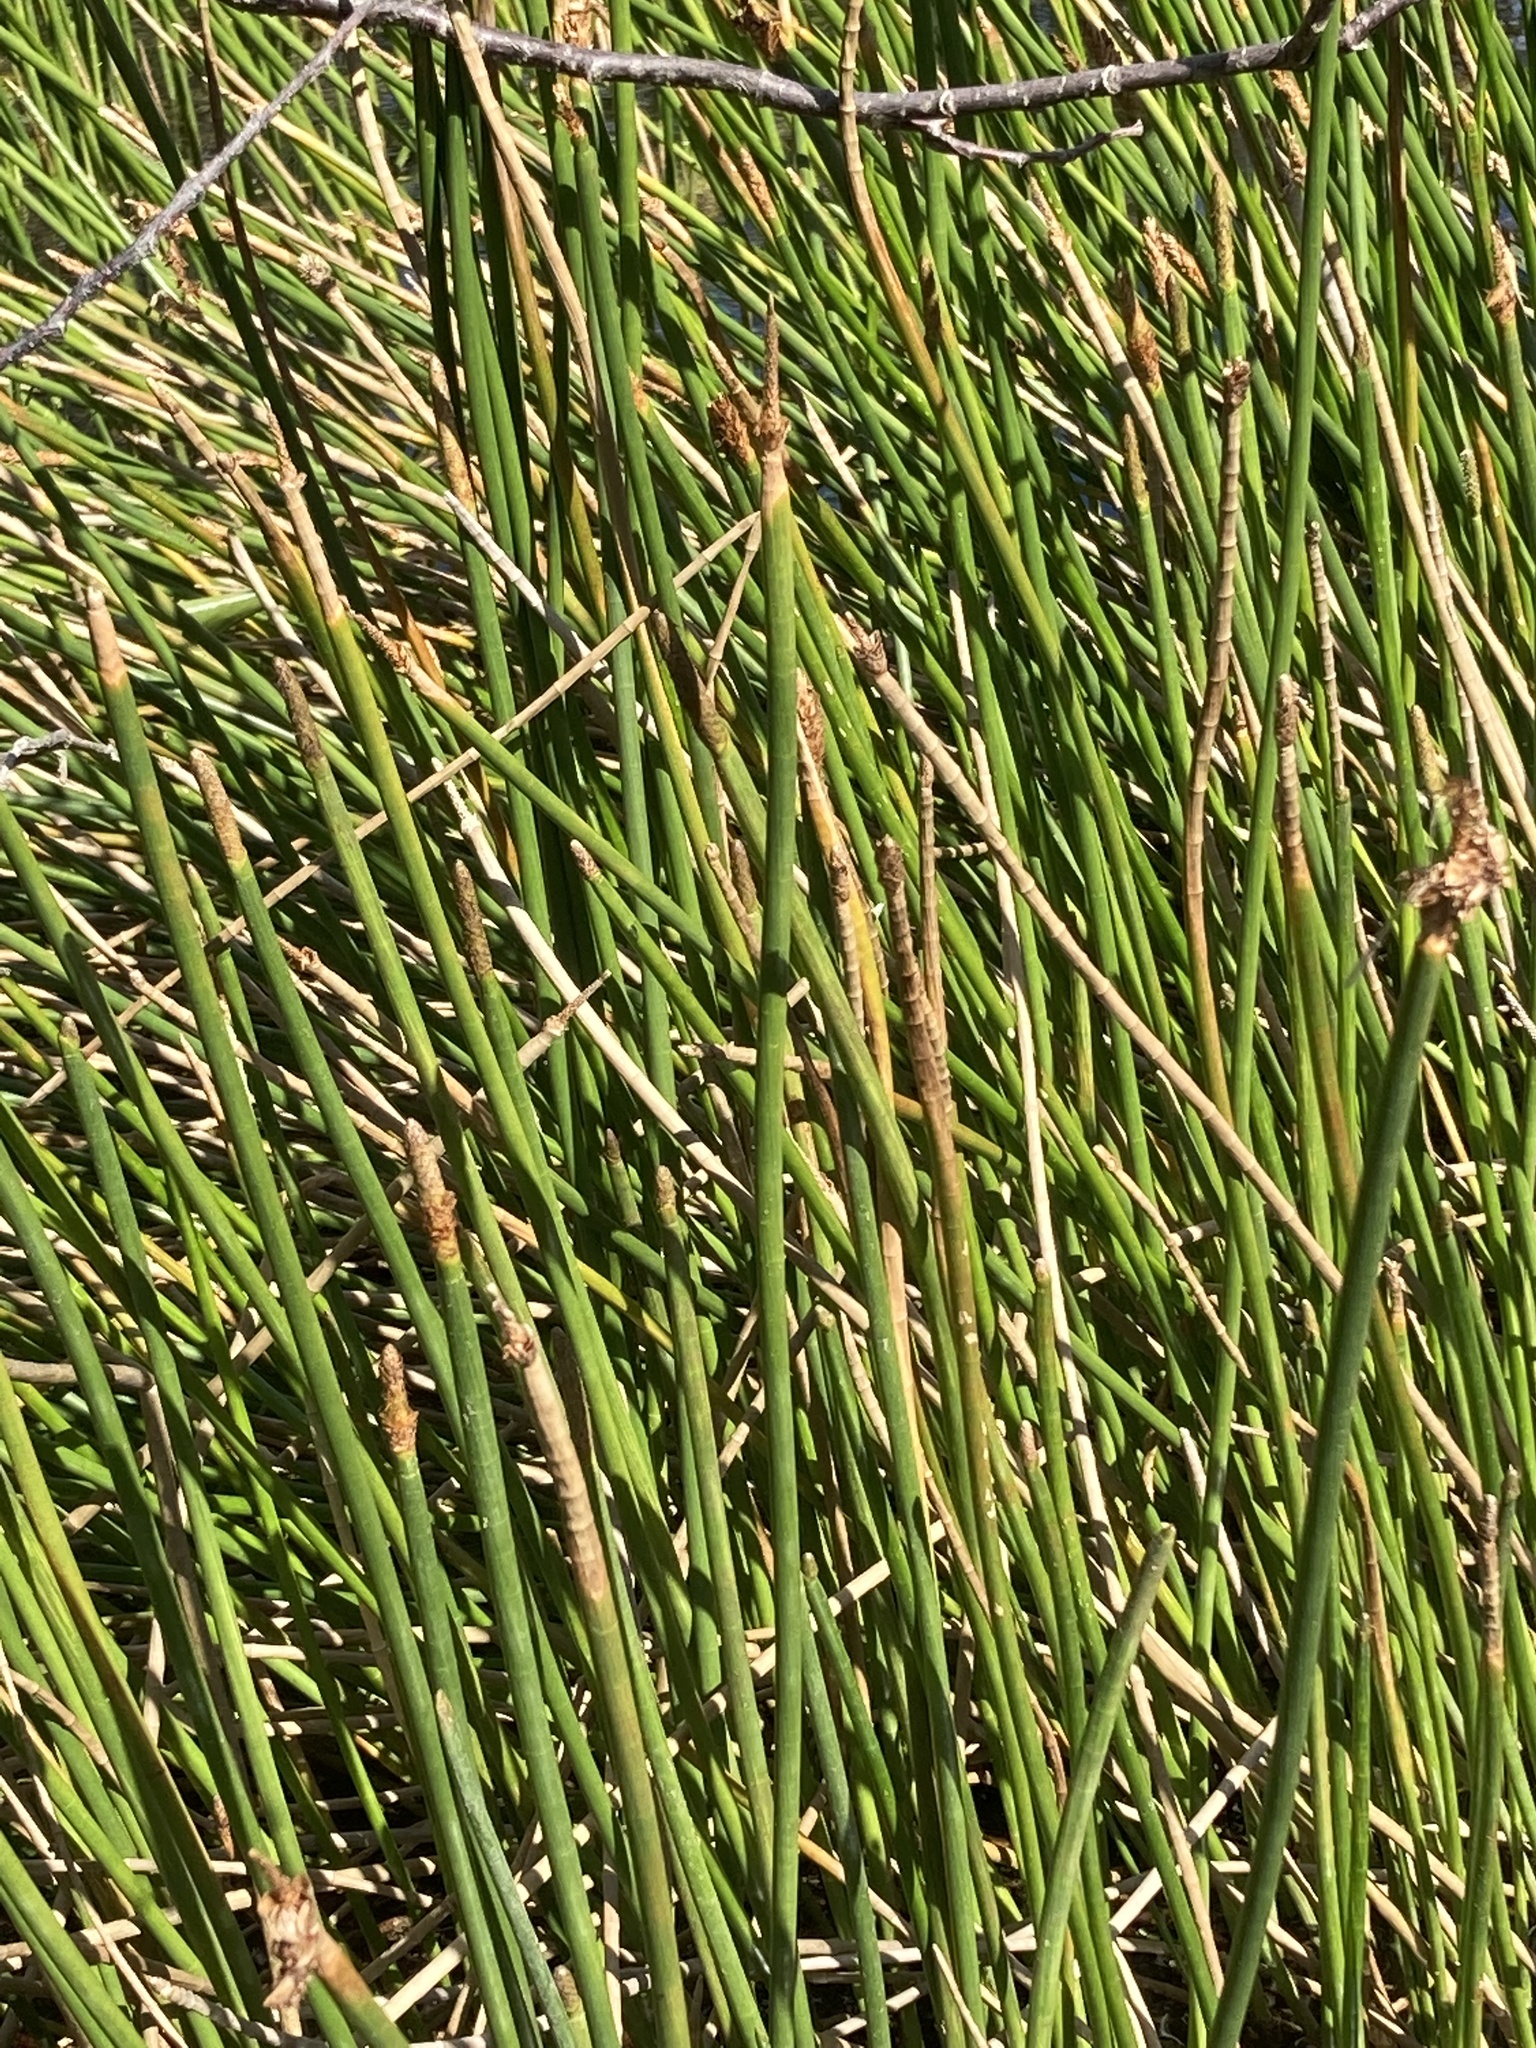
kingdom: Plantae
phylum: Tracheophyta
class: Liliopsida
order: Poales
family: Cyperaceae
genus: Eleocharis
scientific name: Eleocharis interstincta
